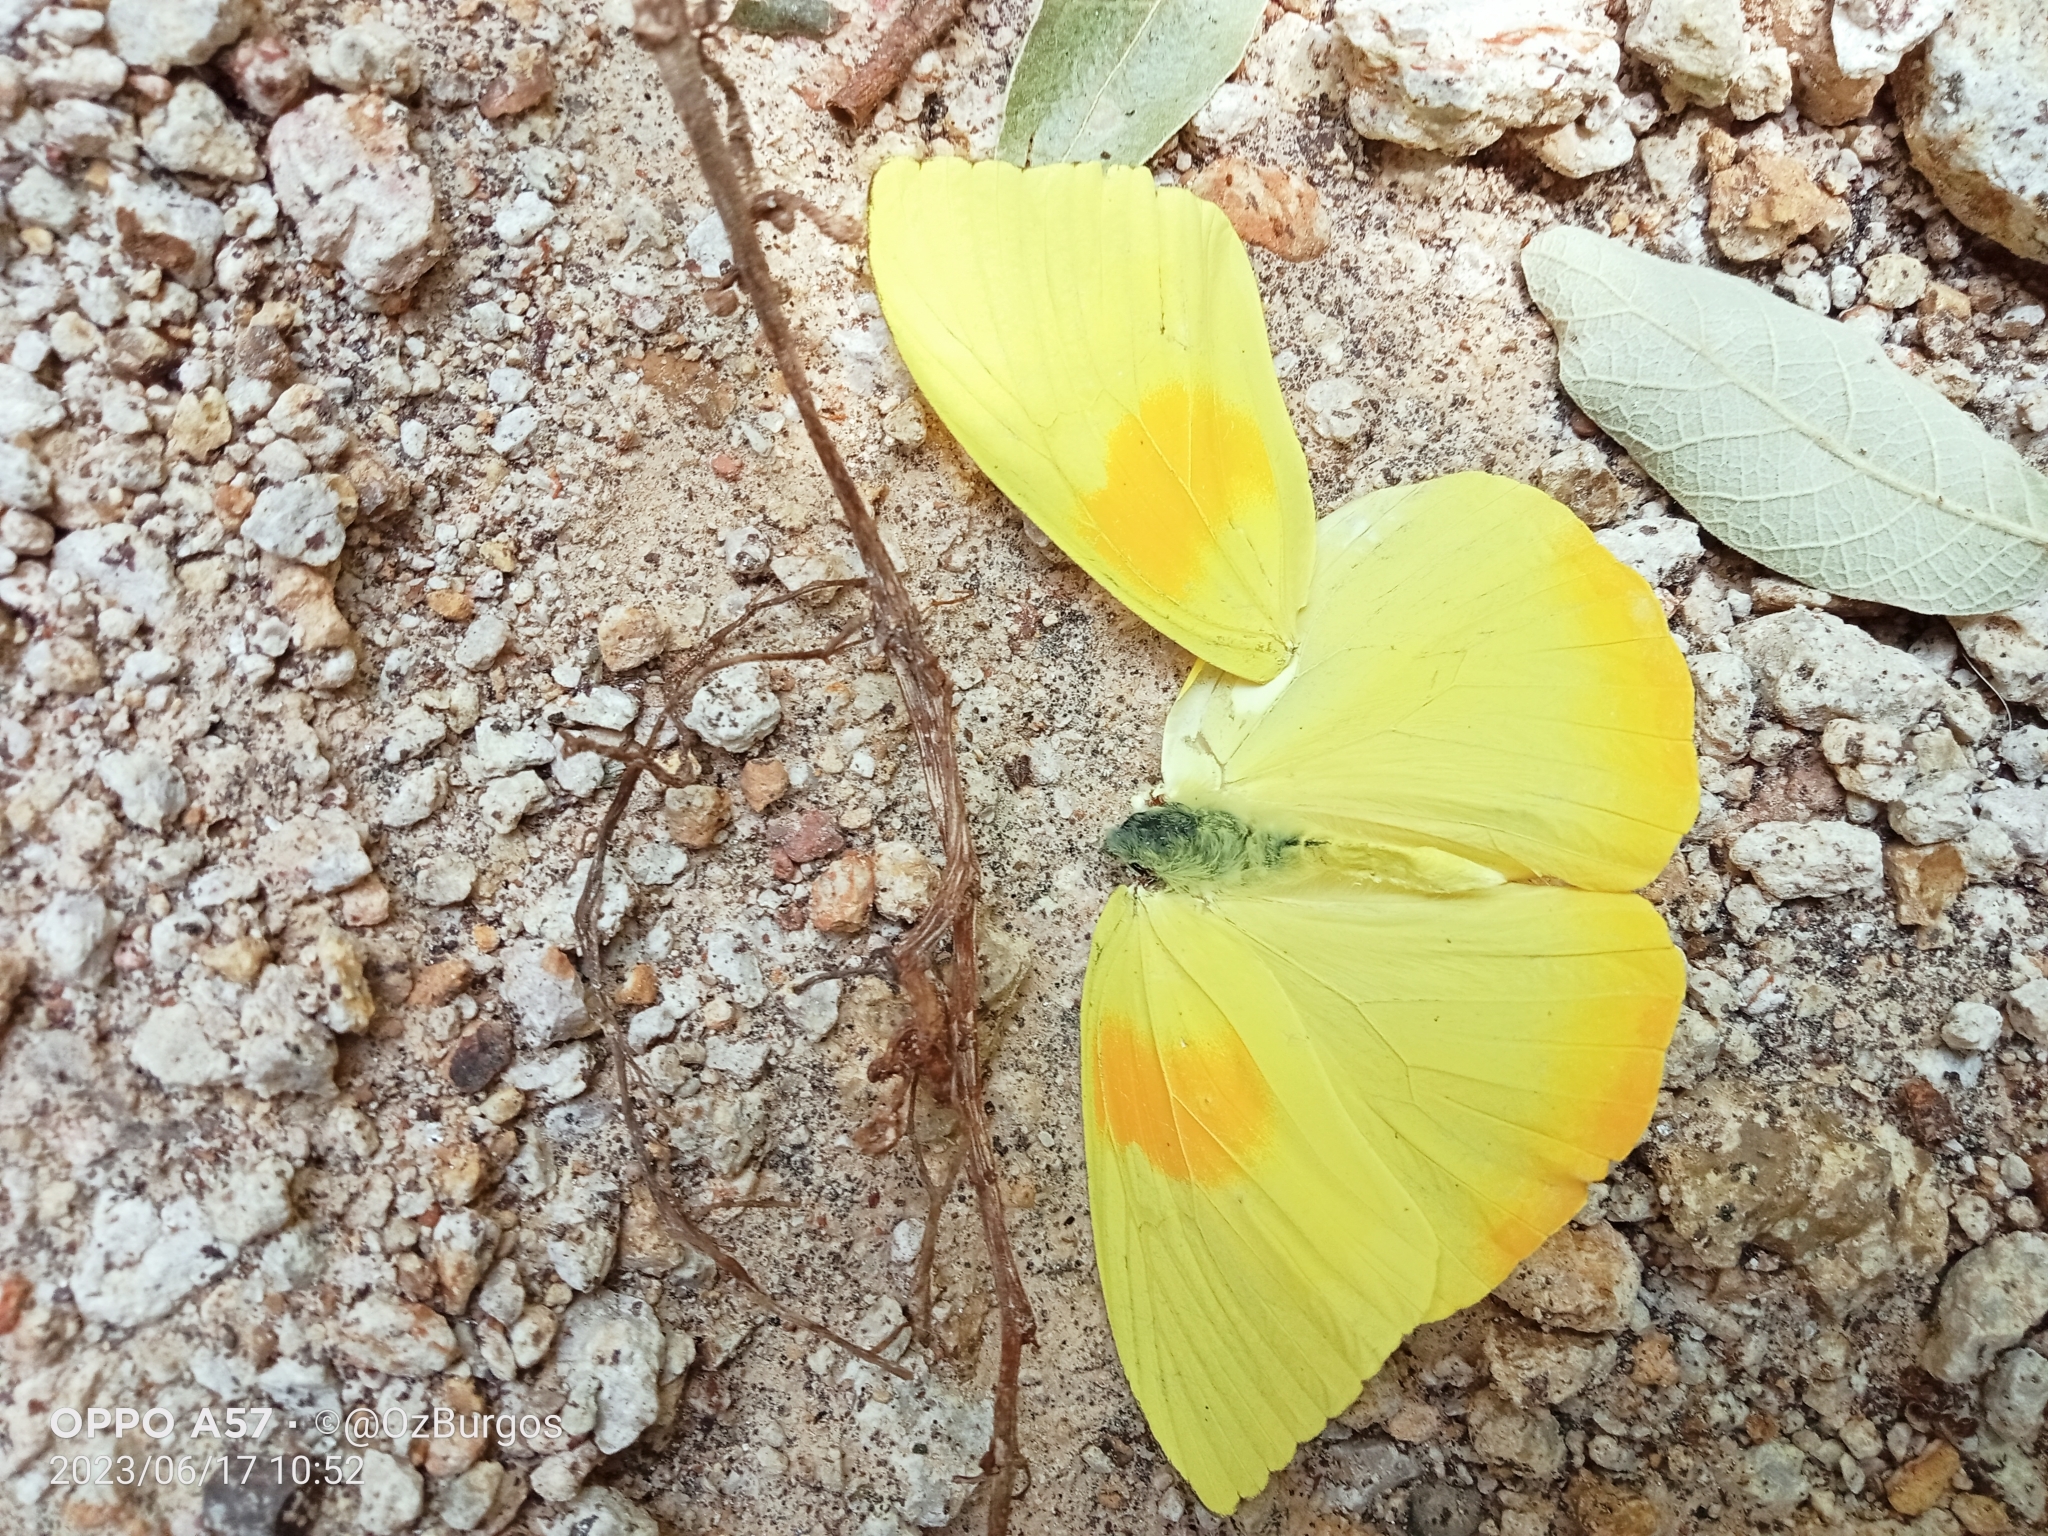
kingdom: Animalia
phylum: Arthropoda
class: Insecta
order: Lepidoptera
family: Pieridae
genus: Phoebis
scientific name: Phoebis philea
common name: Orange-barred giant sulphur
